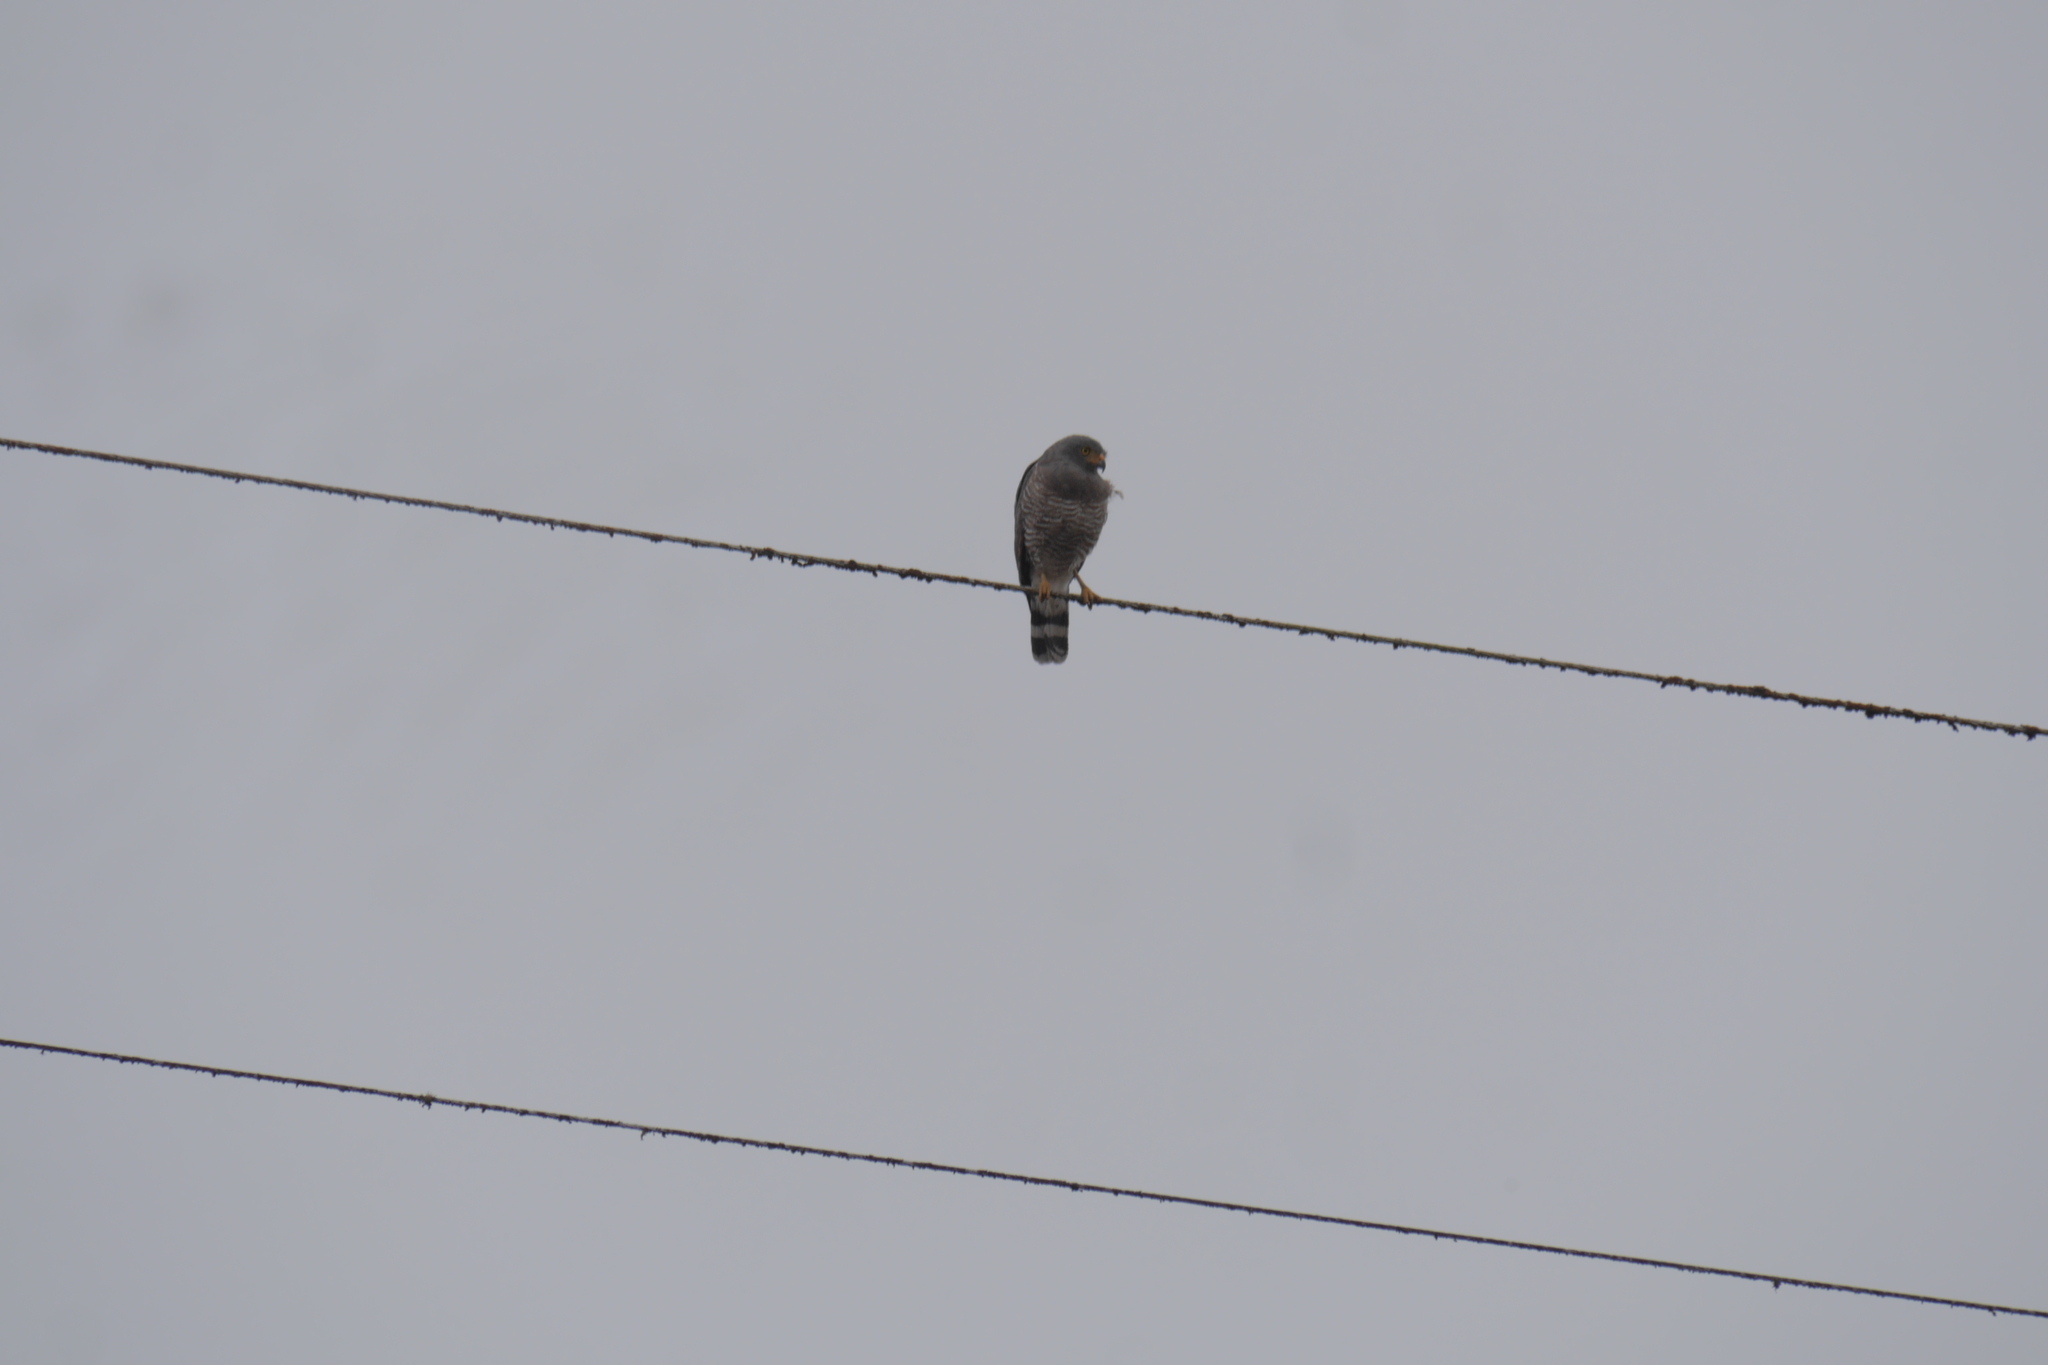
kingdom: Animalia
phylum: Chordata
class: Aves
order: Accipitriformes
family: Accipitridae
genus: Rupornis
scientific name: Rupornis magnirostris
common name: Roadside hawk
